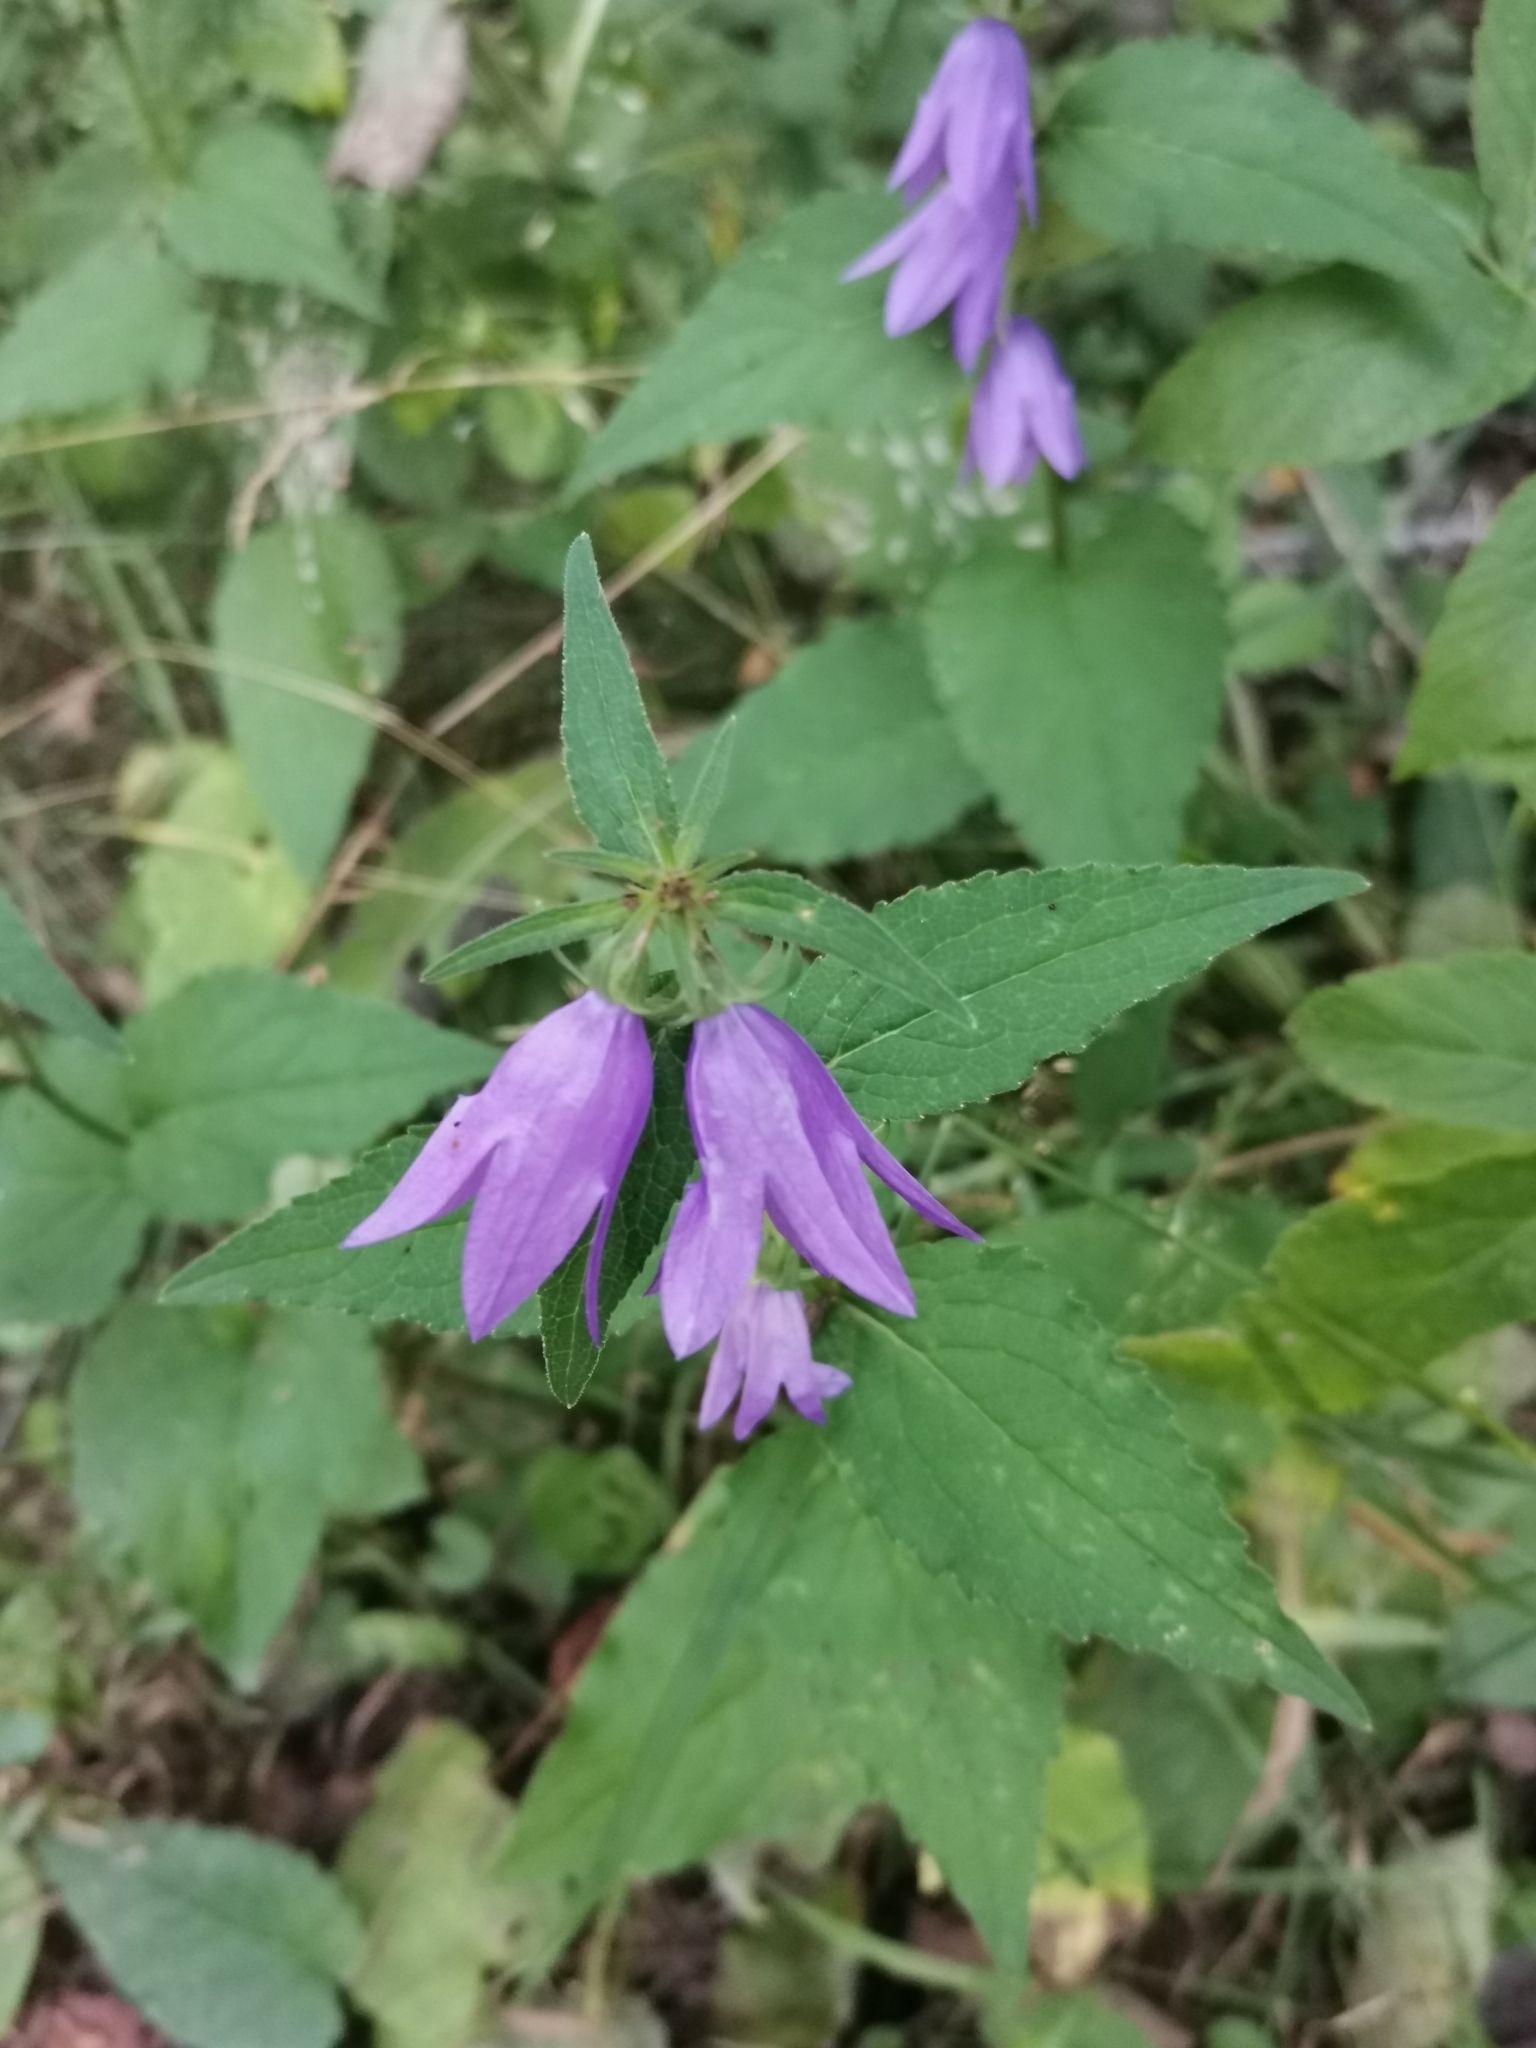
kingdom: Plantae
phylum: Tracheophyta
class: Magnoliopsida
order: Asterales
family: Campanulaceae
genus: Campanula
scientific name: Campanula trachelium
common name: Nettle-leaved bellflower
